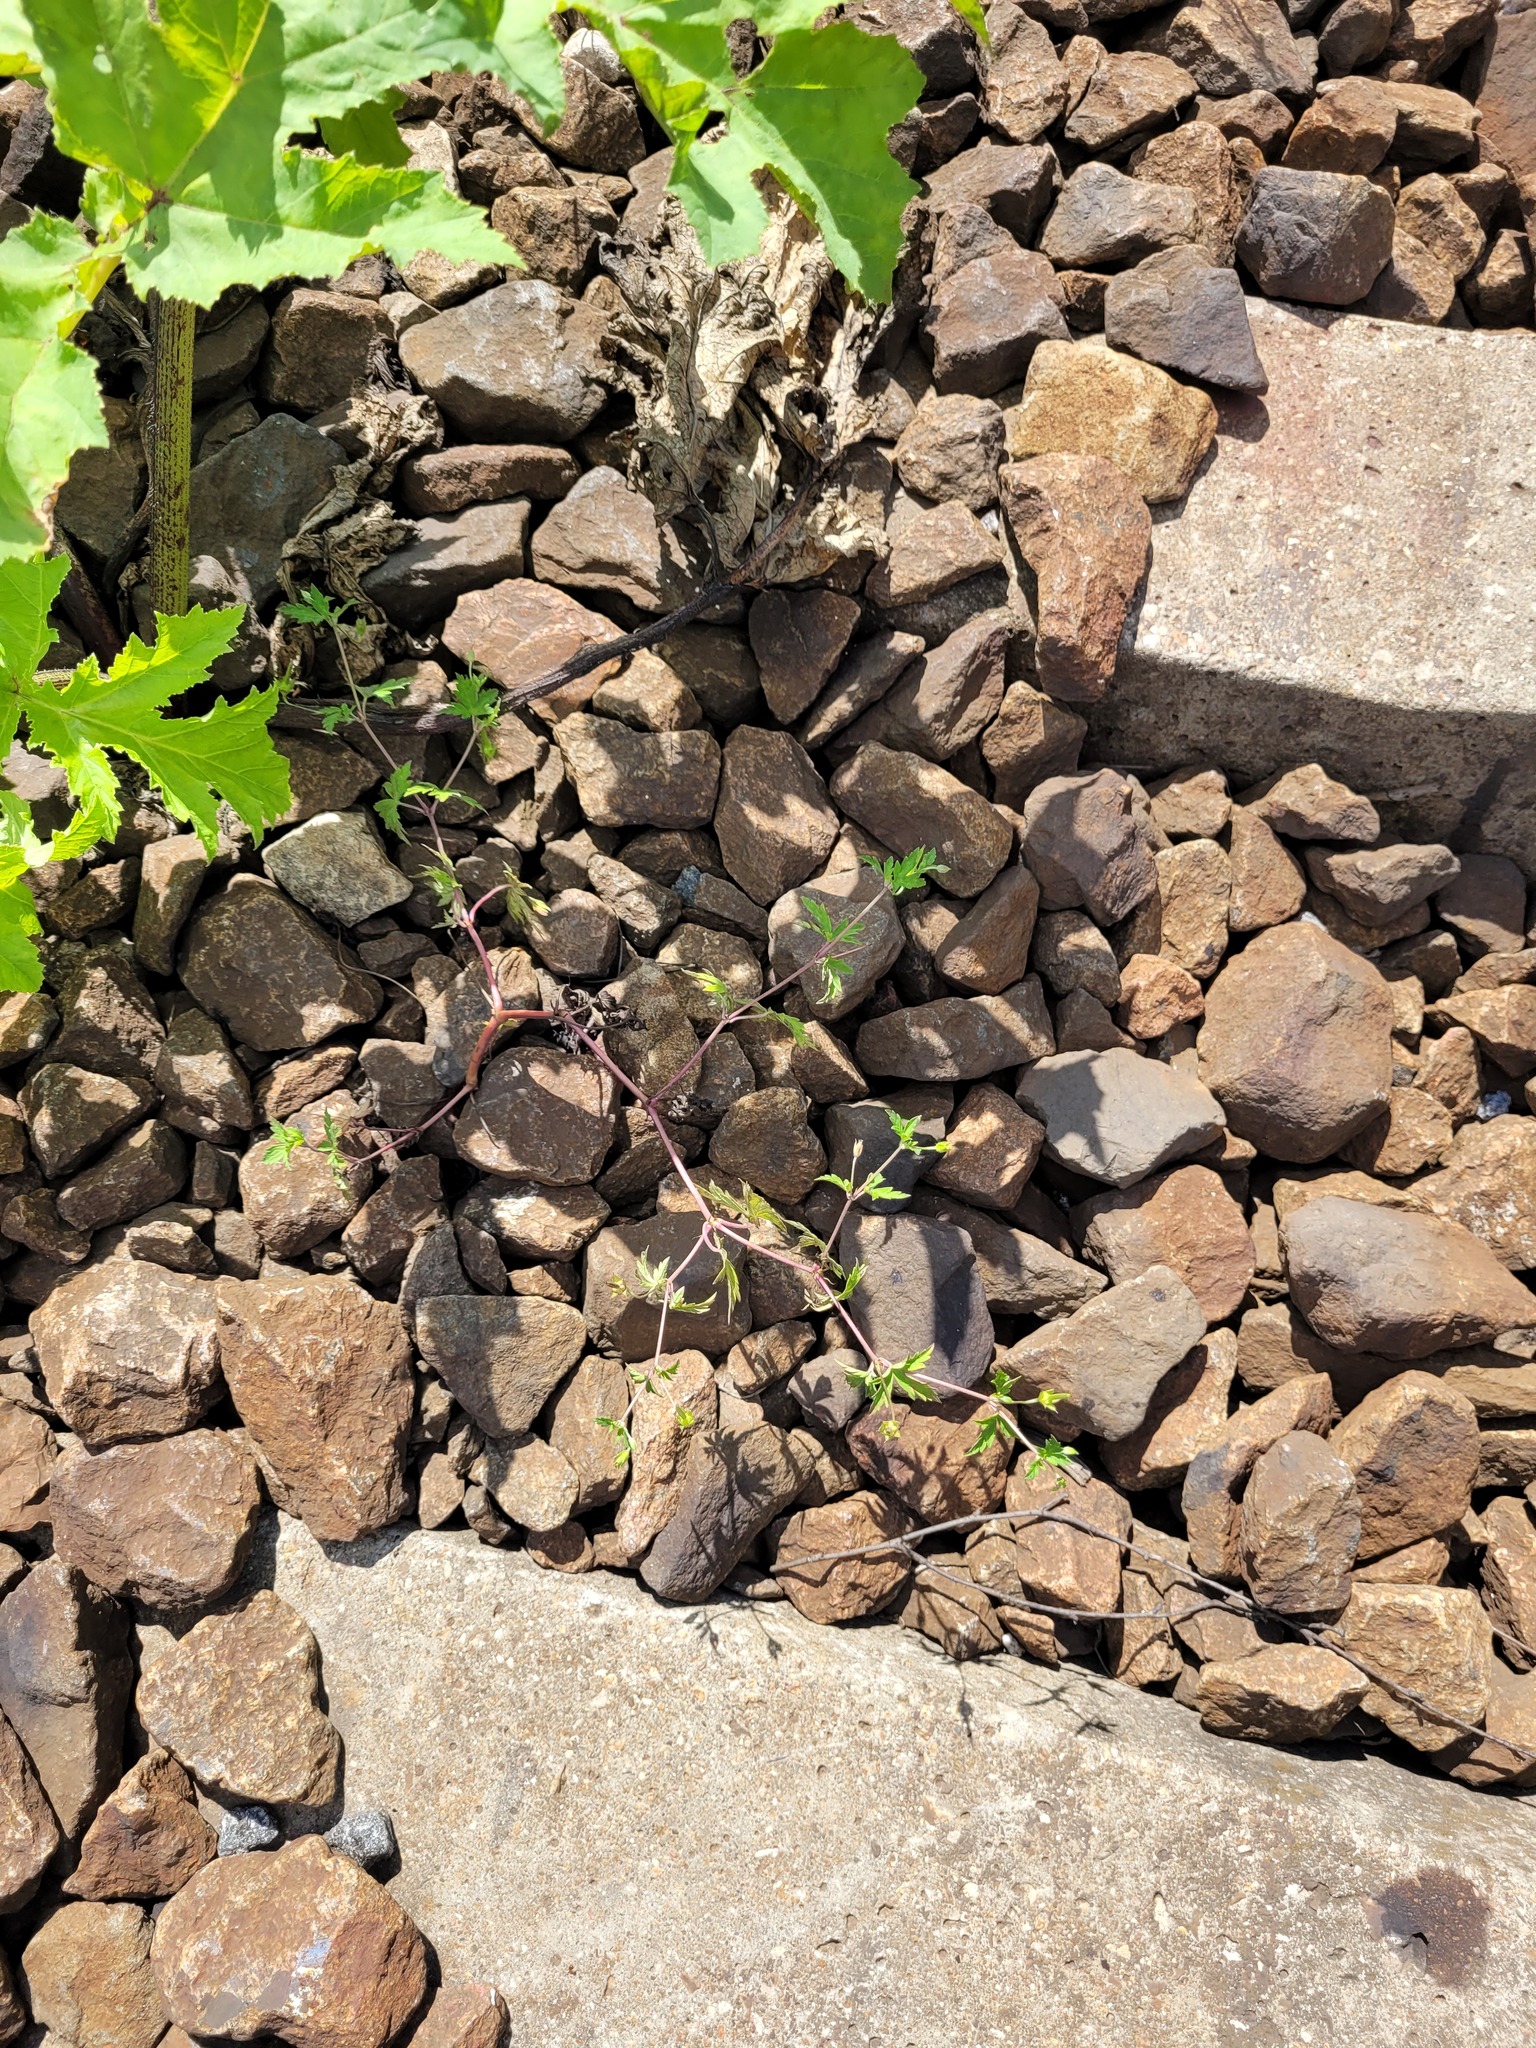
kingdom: Plantae
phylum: Tracheophyta
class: Magnoliopsida
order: Geraniales
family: Geraniaceae
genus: Geranium
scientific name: Geranium sibiricum
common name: Siberian crane's-bill
